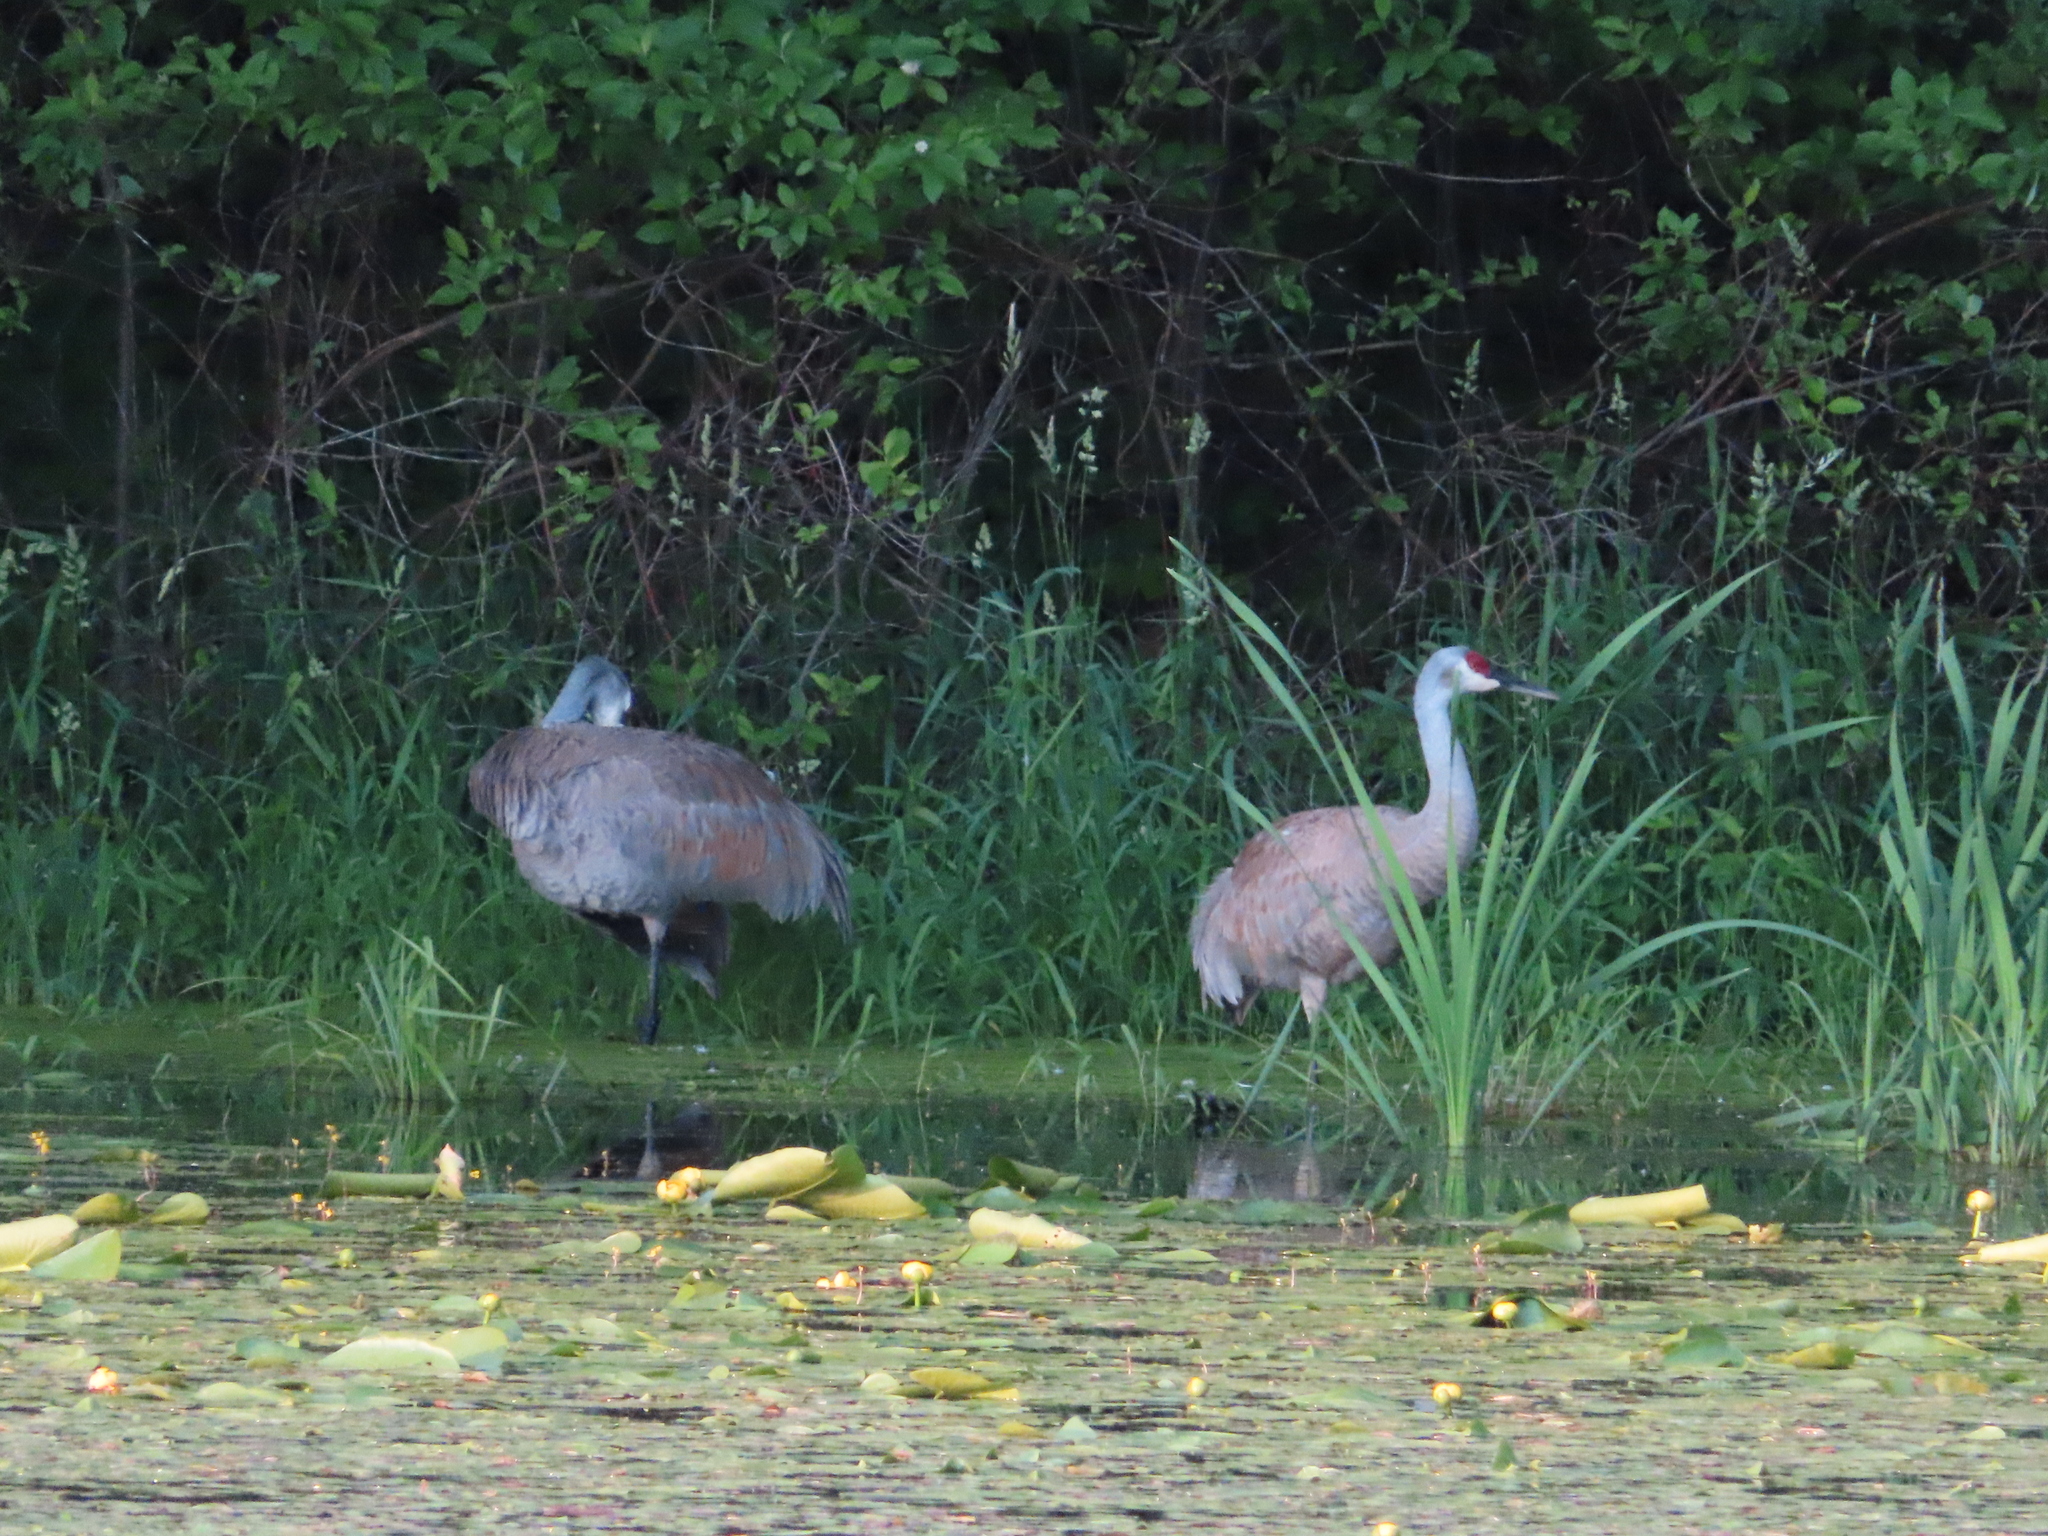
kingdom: Animalia
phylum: Chordata
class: Aves
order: Gruiformes
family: Gruidae
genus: Grus
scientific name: Grus canadensis
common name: Sandhill crane
